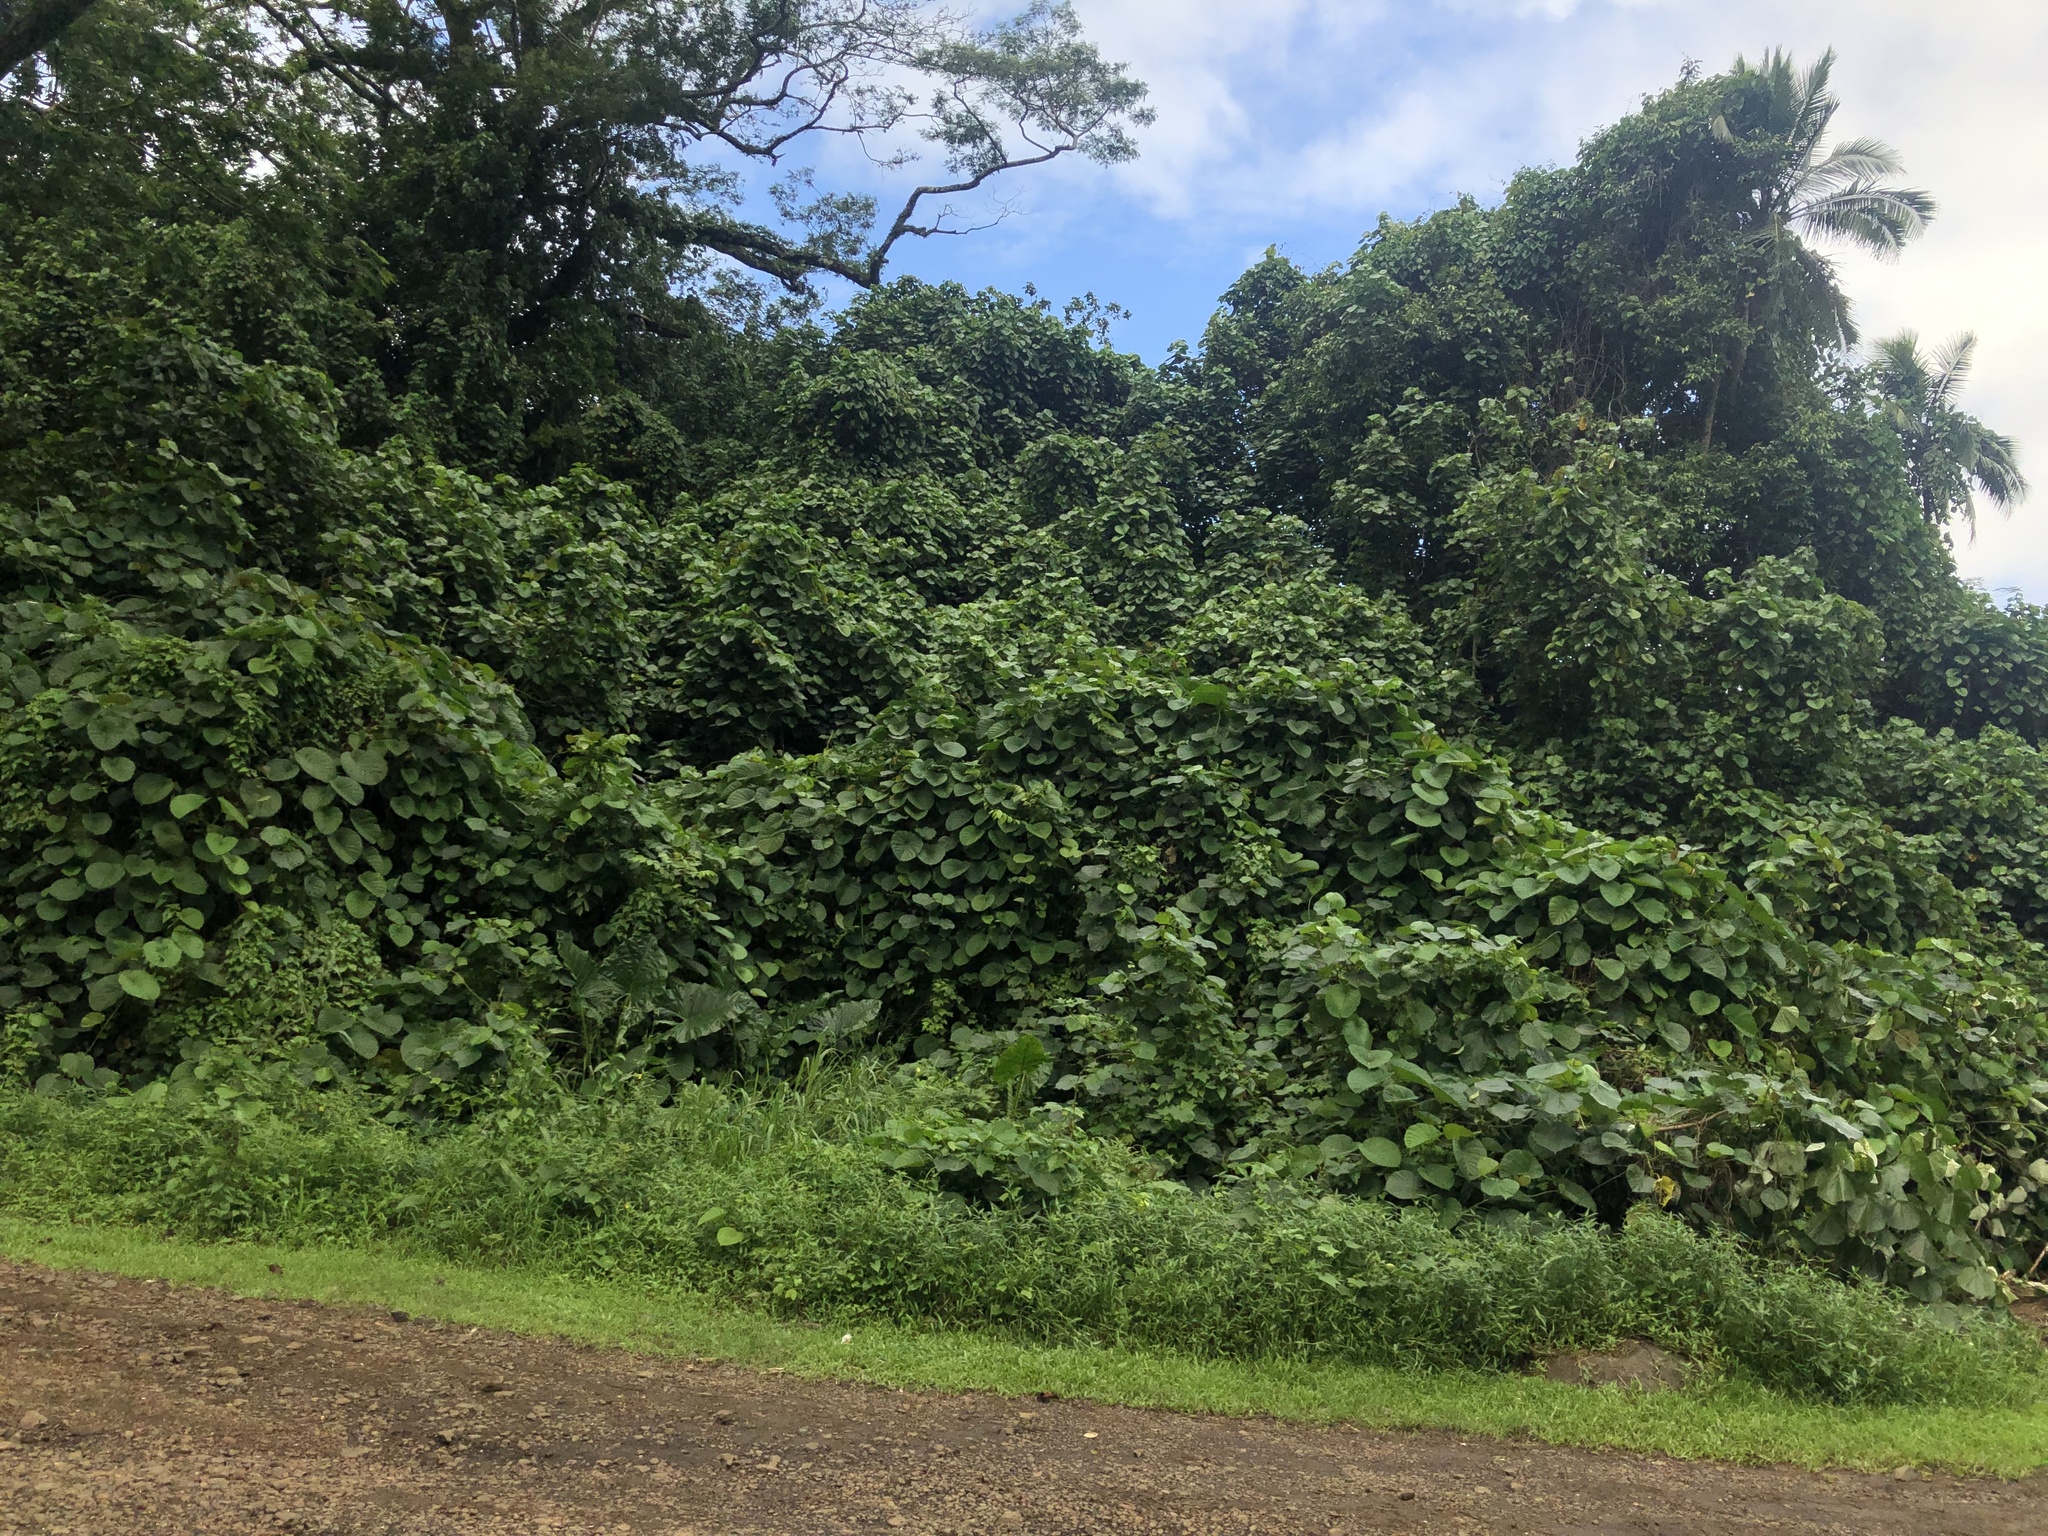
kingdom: Plantae
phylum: Tracheophyta
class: Magnoliopsida
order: Solanales
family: Convolvulaceae
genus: Decalobanthus
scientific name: Decalobanthus peltatus
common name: Merremia
